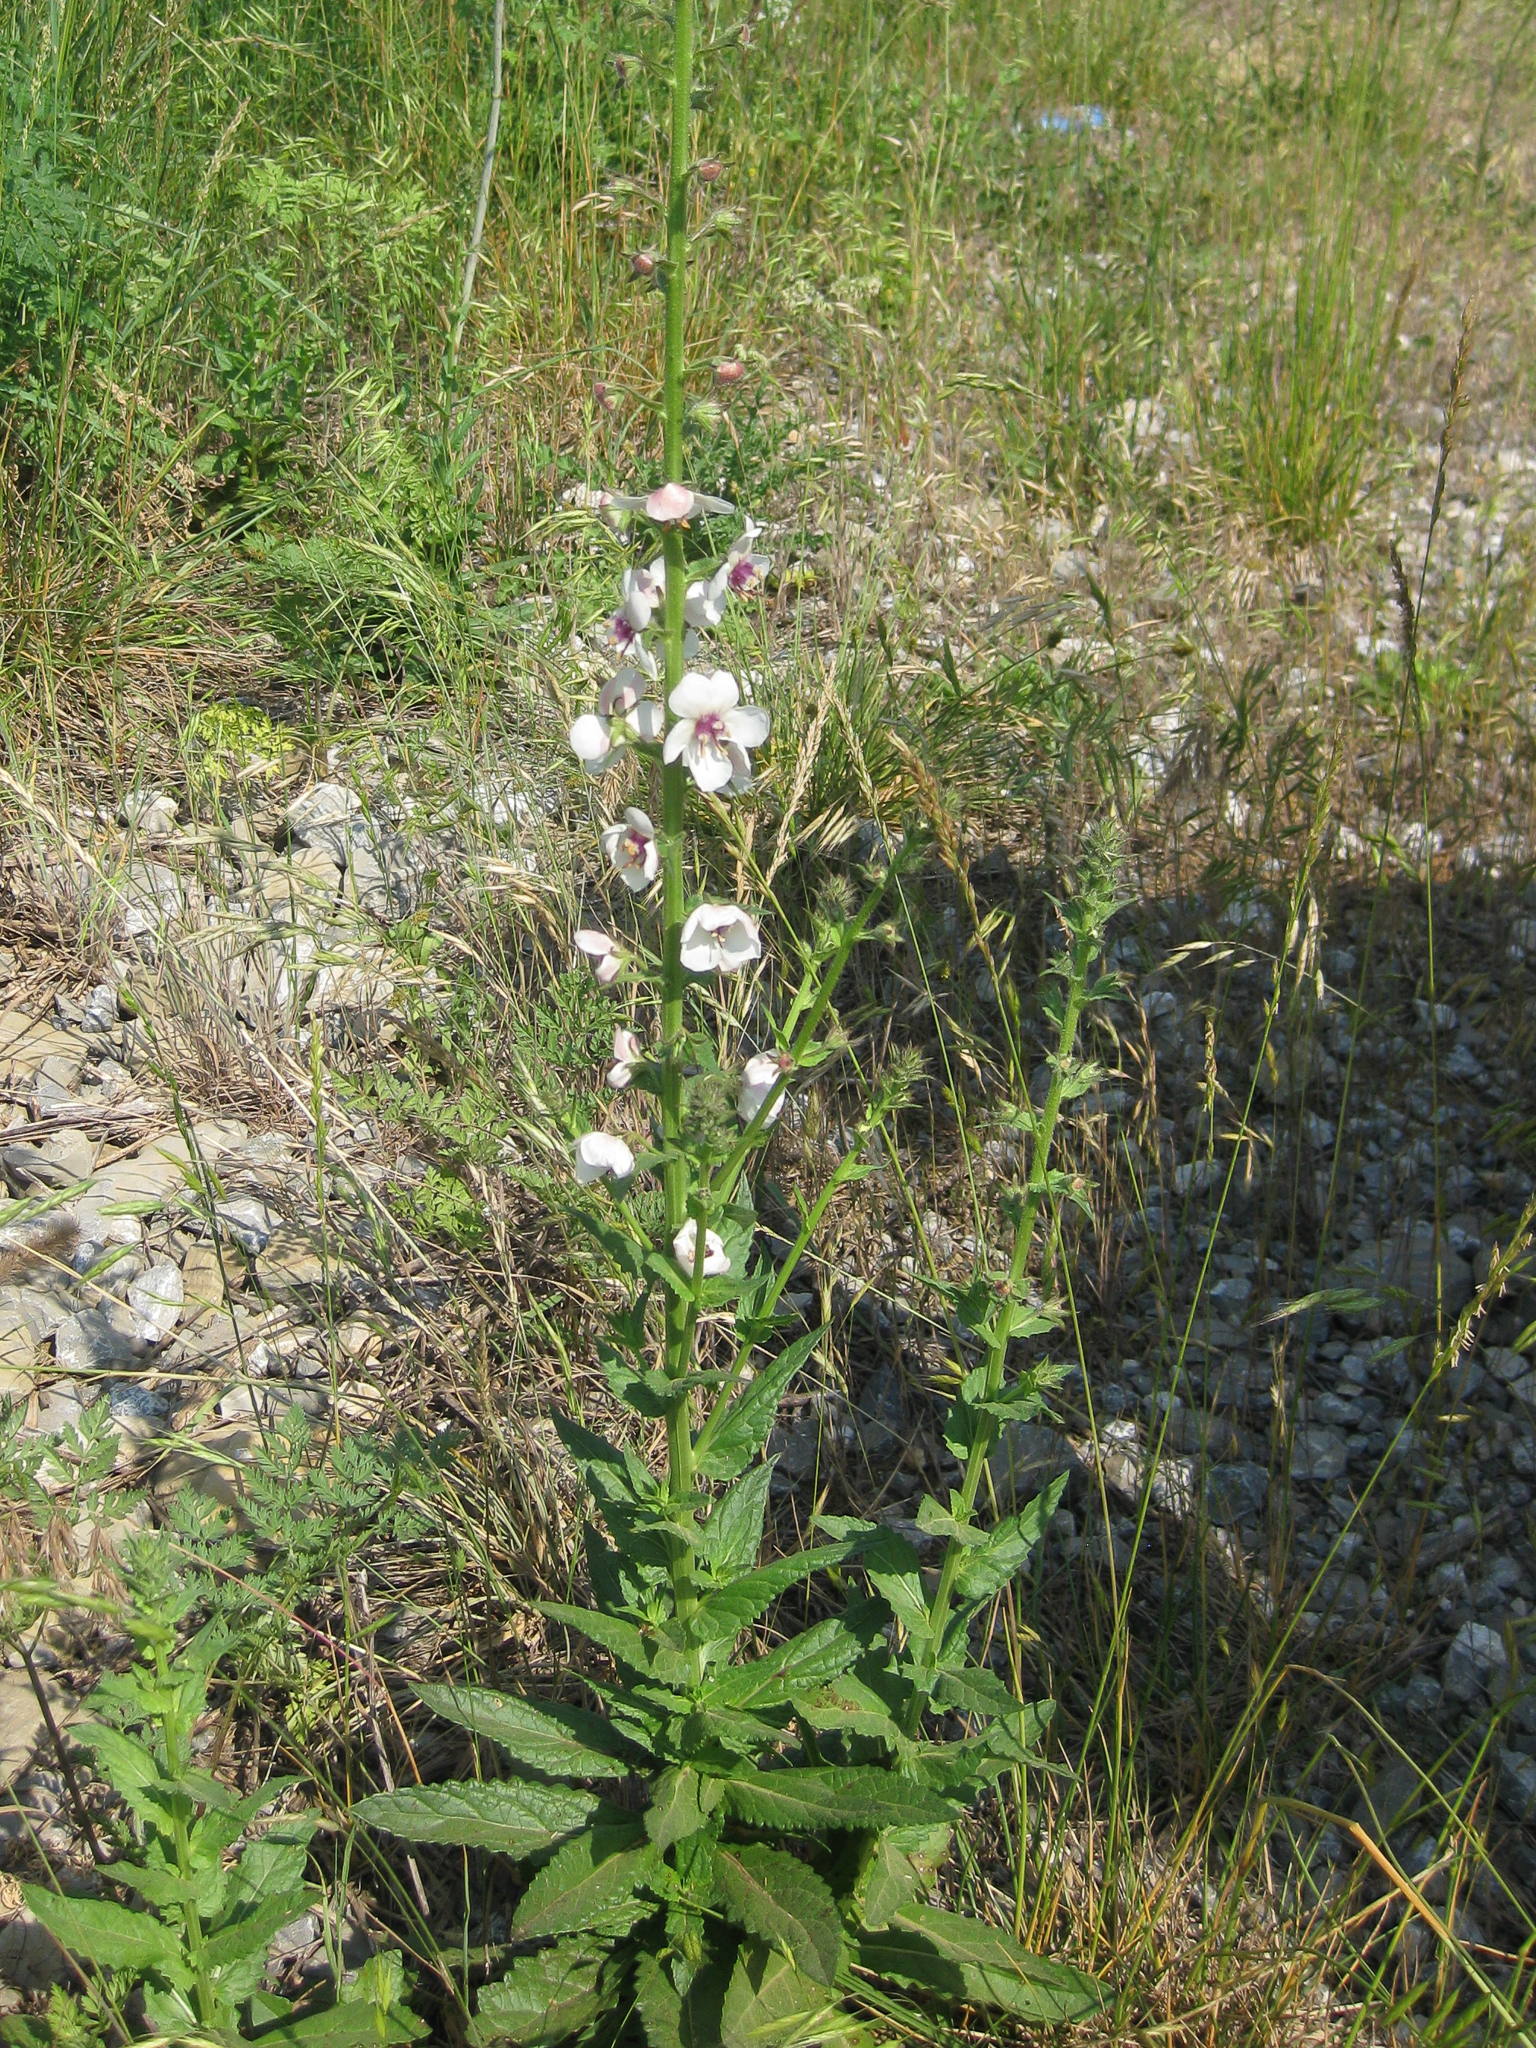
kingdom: Plantae
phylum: Tracheophyta
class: Magnoliopsida
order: Lamiales
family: Scrophulariaceae
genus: Verbascum
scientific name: Verbascum blattaria
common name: Moth mullein
